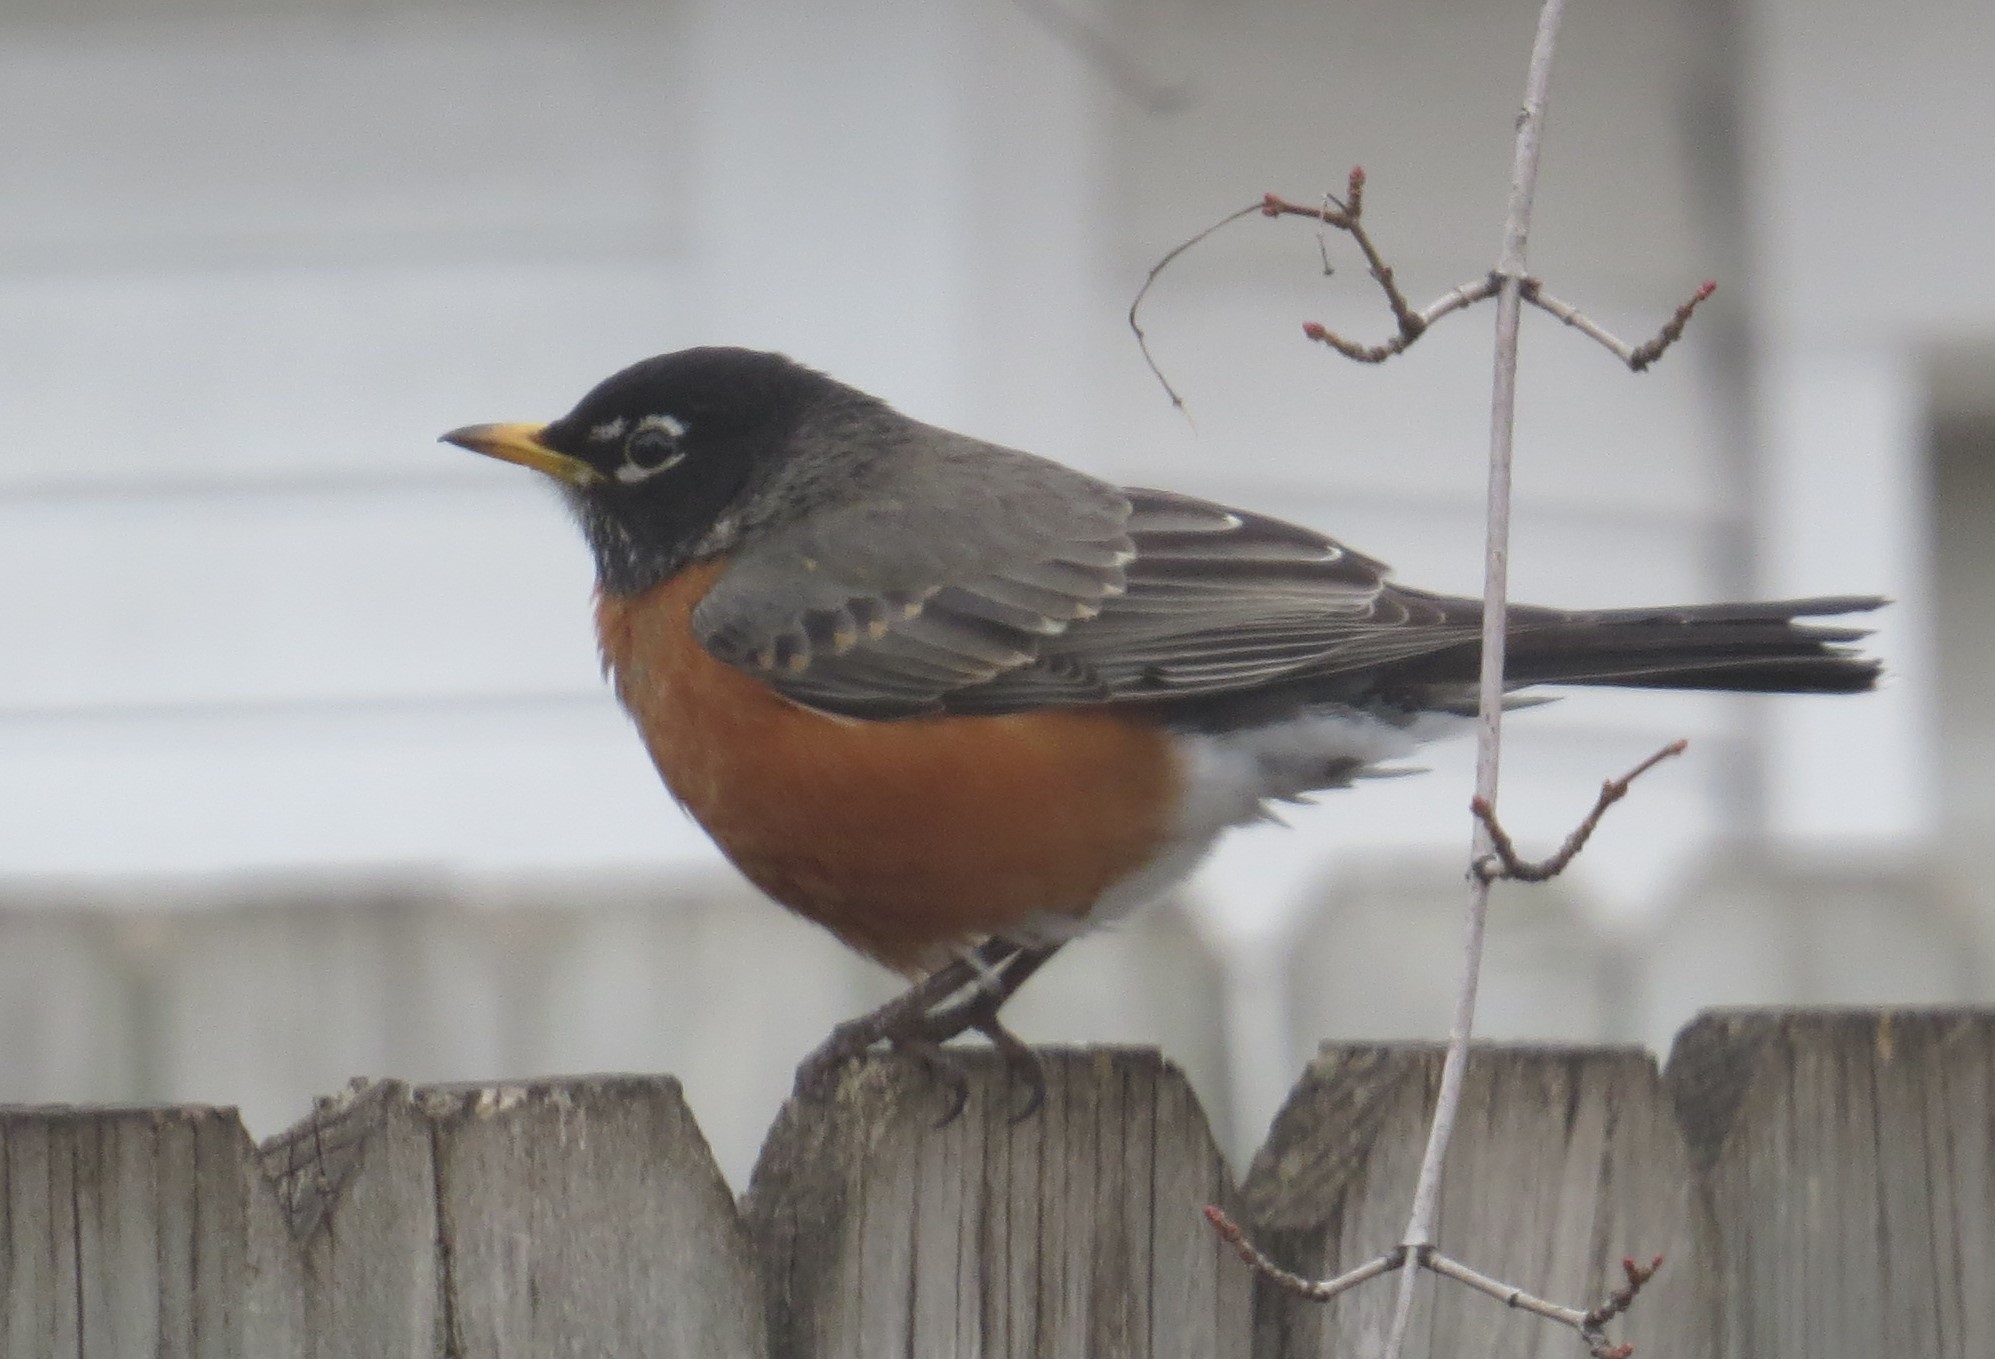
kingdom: Animalia
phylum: Chordata
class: Aves
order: Passeriformes
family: Turdidae
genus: Turdus
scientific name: Turdus migratorius
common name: American robin
